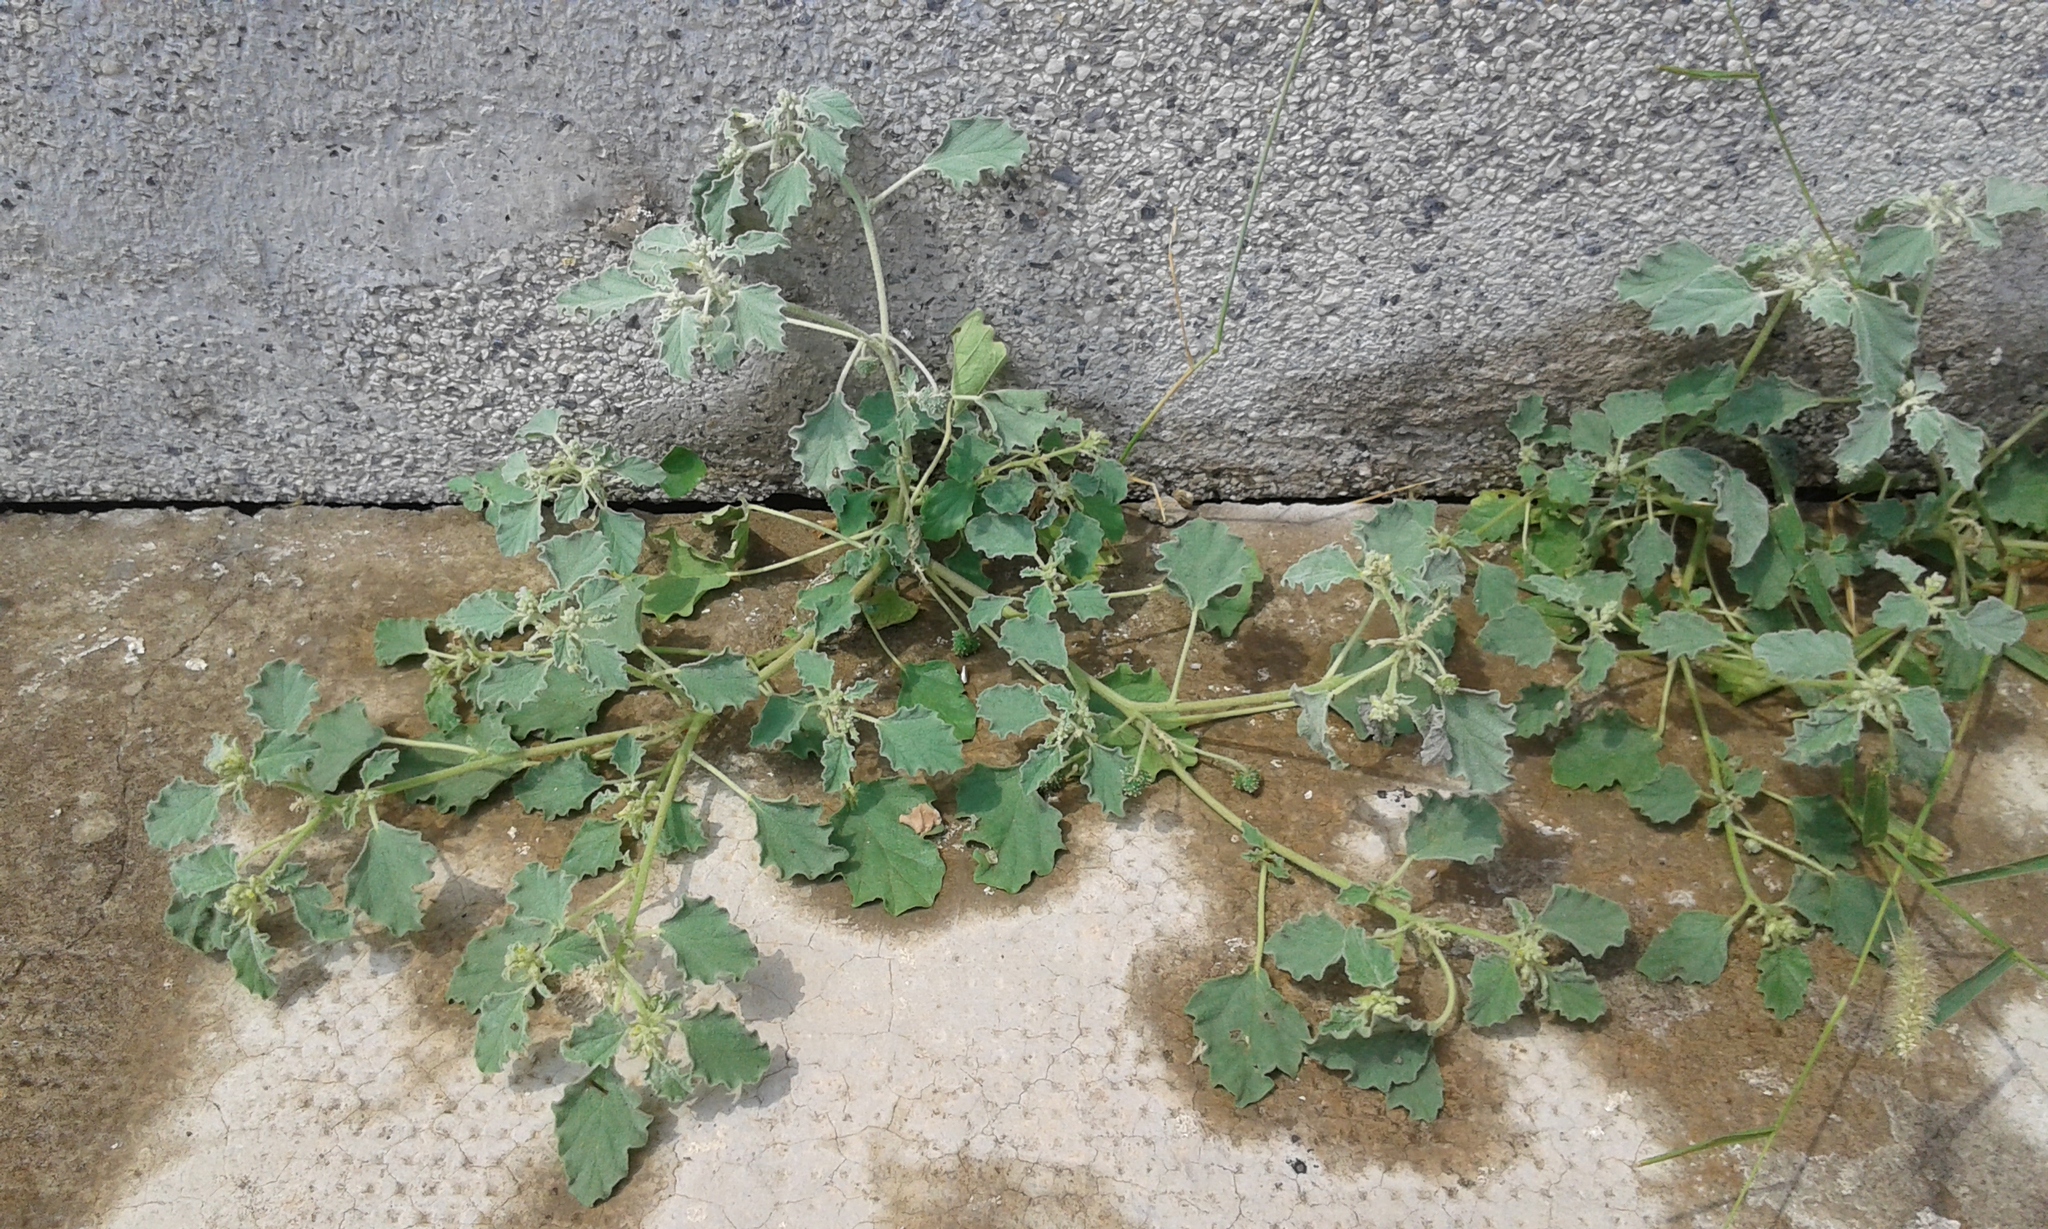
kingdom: Plantae
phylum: Tracheophyta
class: Magnoliopsida
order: Malpighiales
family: Euphorbiaceae
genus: Chrozophora
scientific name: Chrozophora tinctoria
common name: Dyer's litmus
